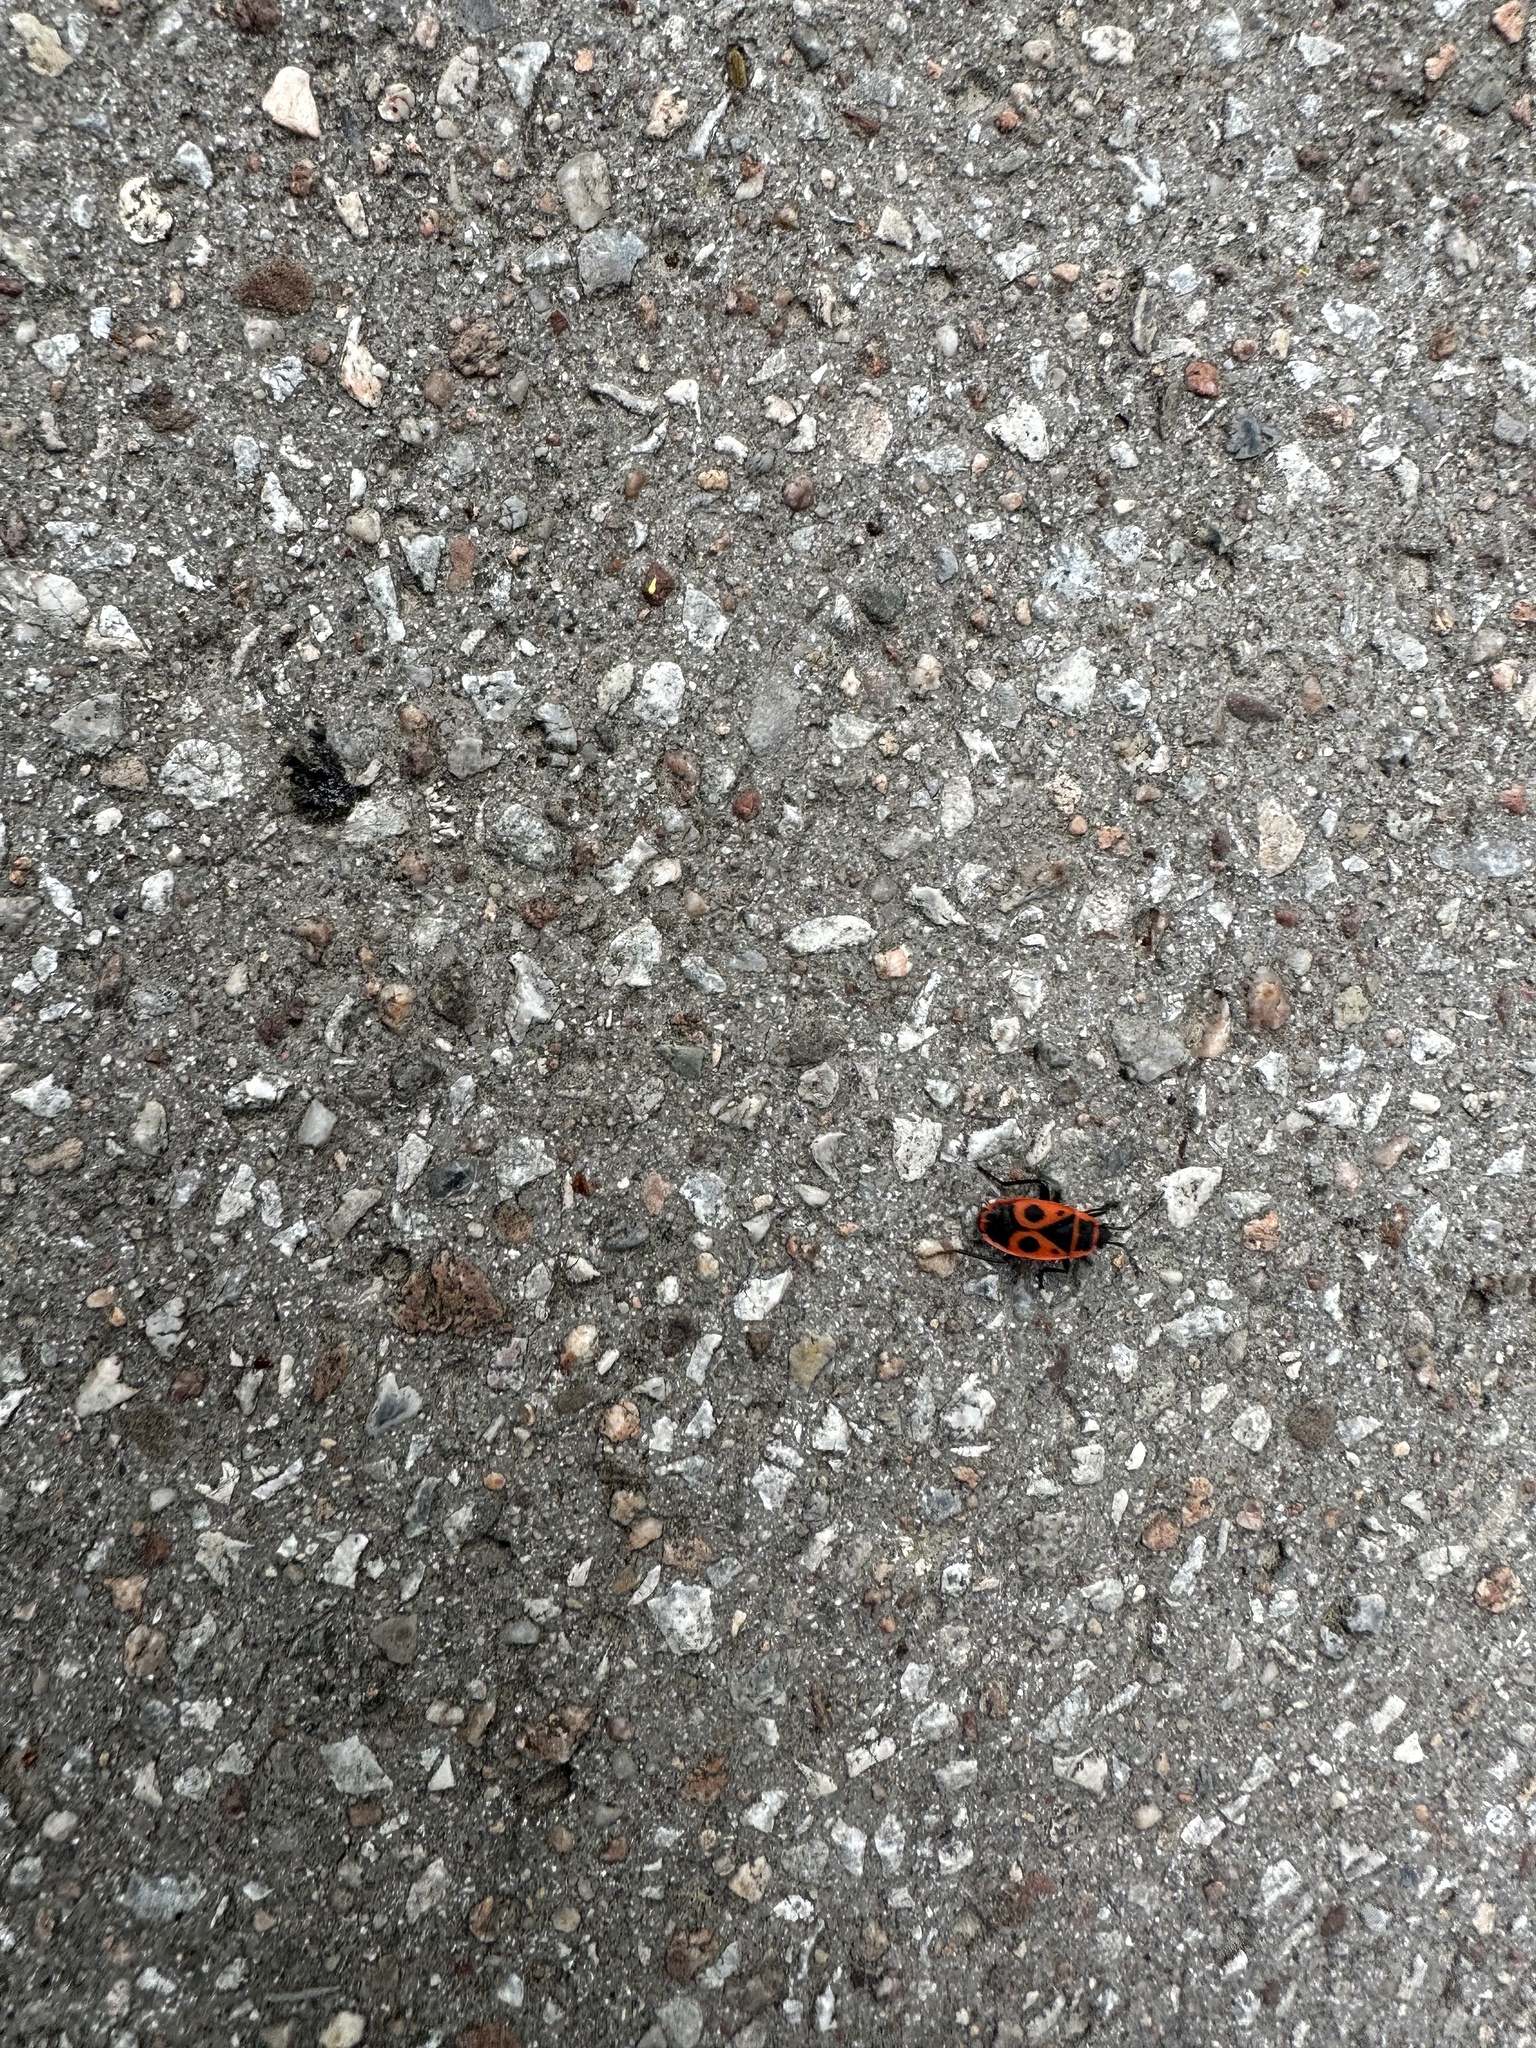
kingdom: Animalia
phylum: Arthropoda
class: Insecta
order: Hemiptera
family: Pyrrhocoridae
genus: Pyrrhocoris
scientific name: Pyrrhocoris apterus
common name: Firebug
